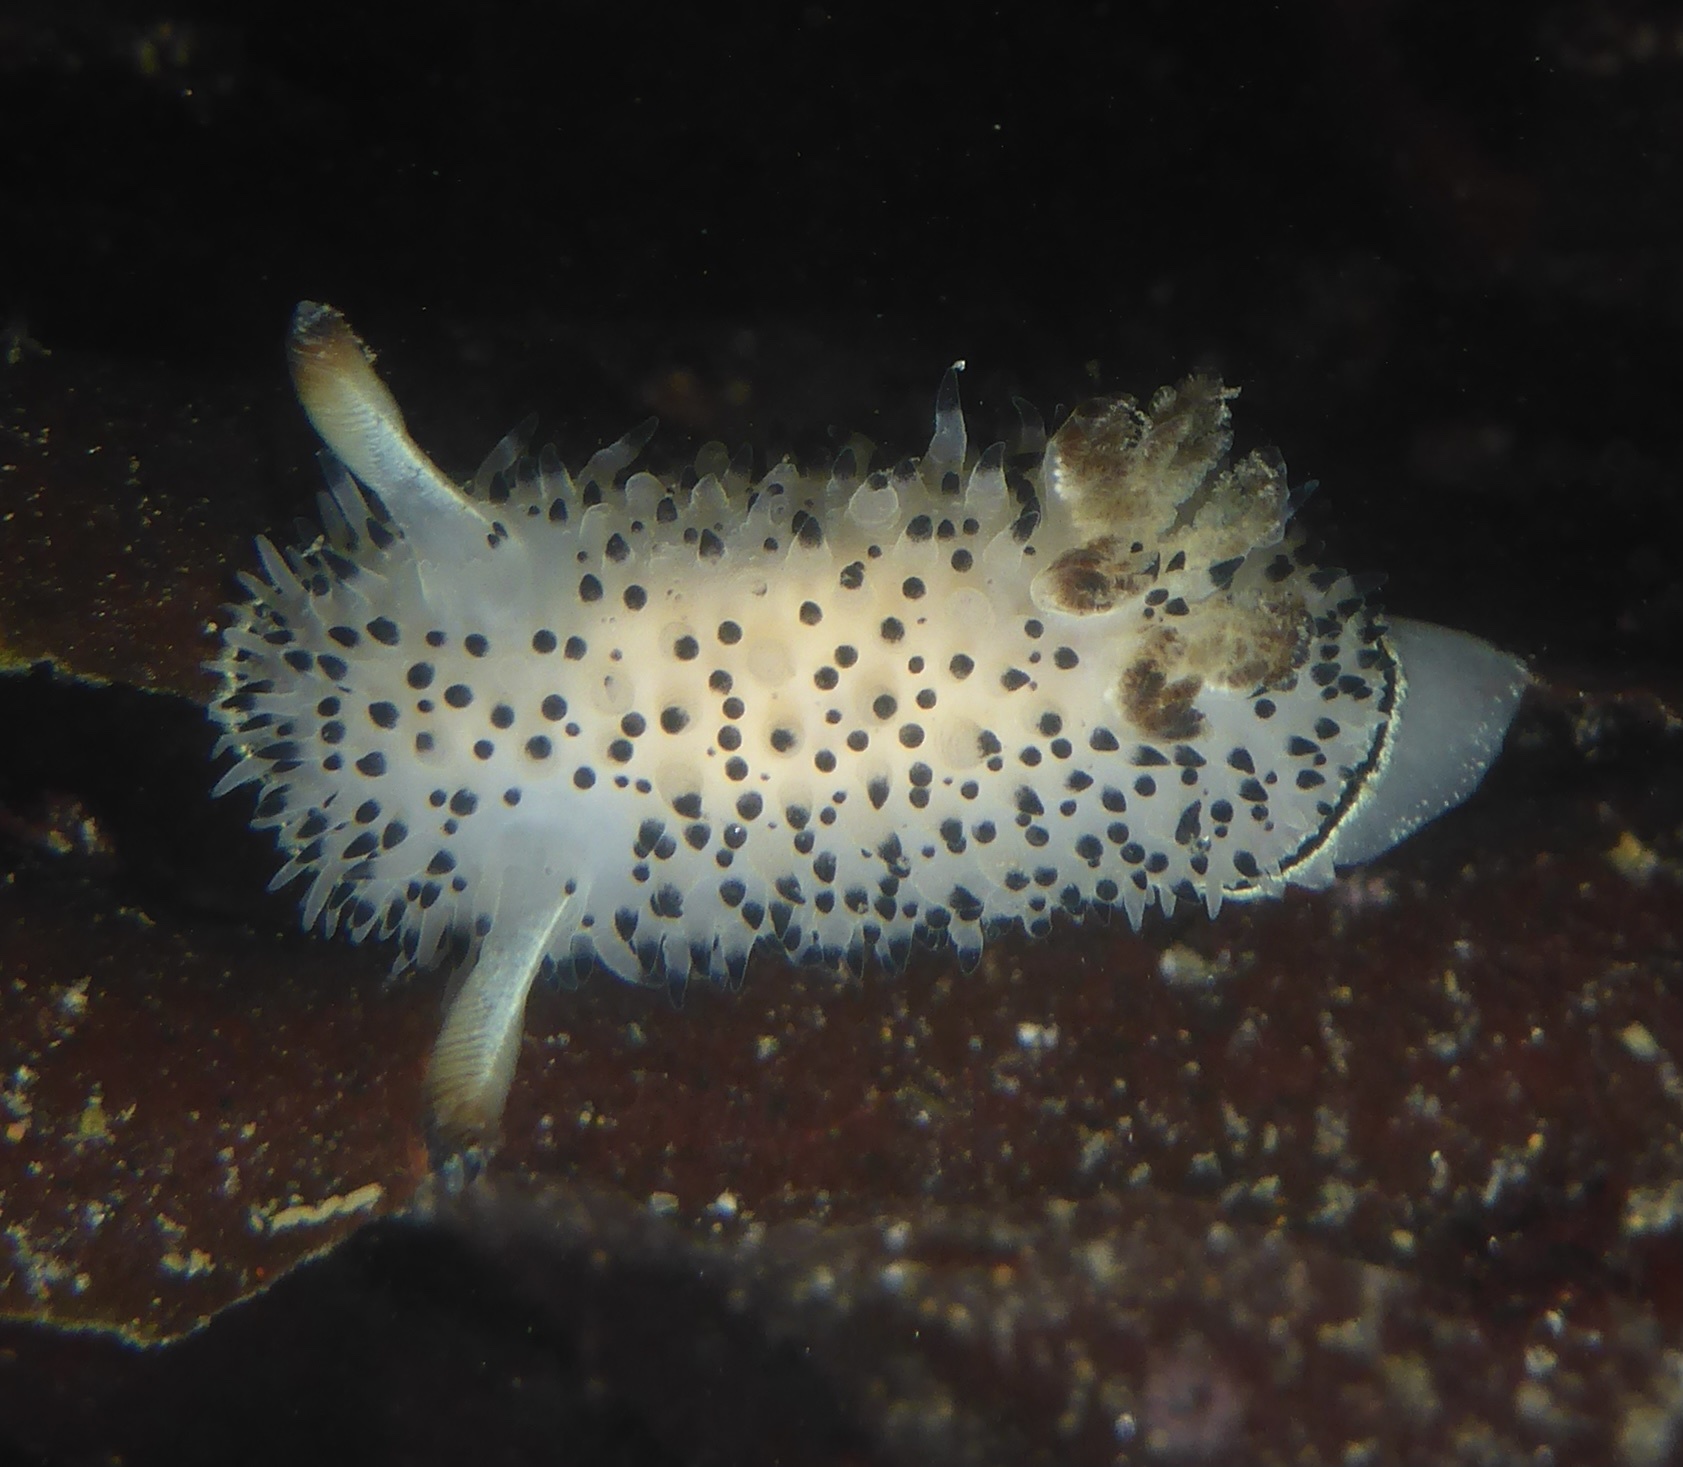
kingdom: Animalia
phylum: Mollusca
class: Gastropoda
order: Nudibranchia
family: Onchidorididae
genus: Acanthodoris
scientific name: Acanthodoris rhodoceras
